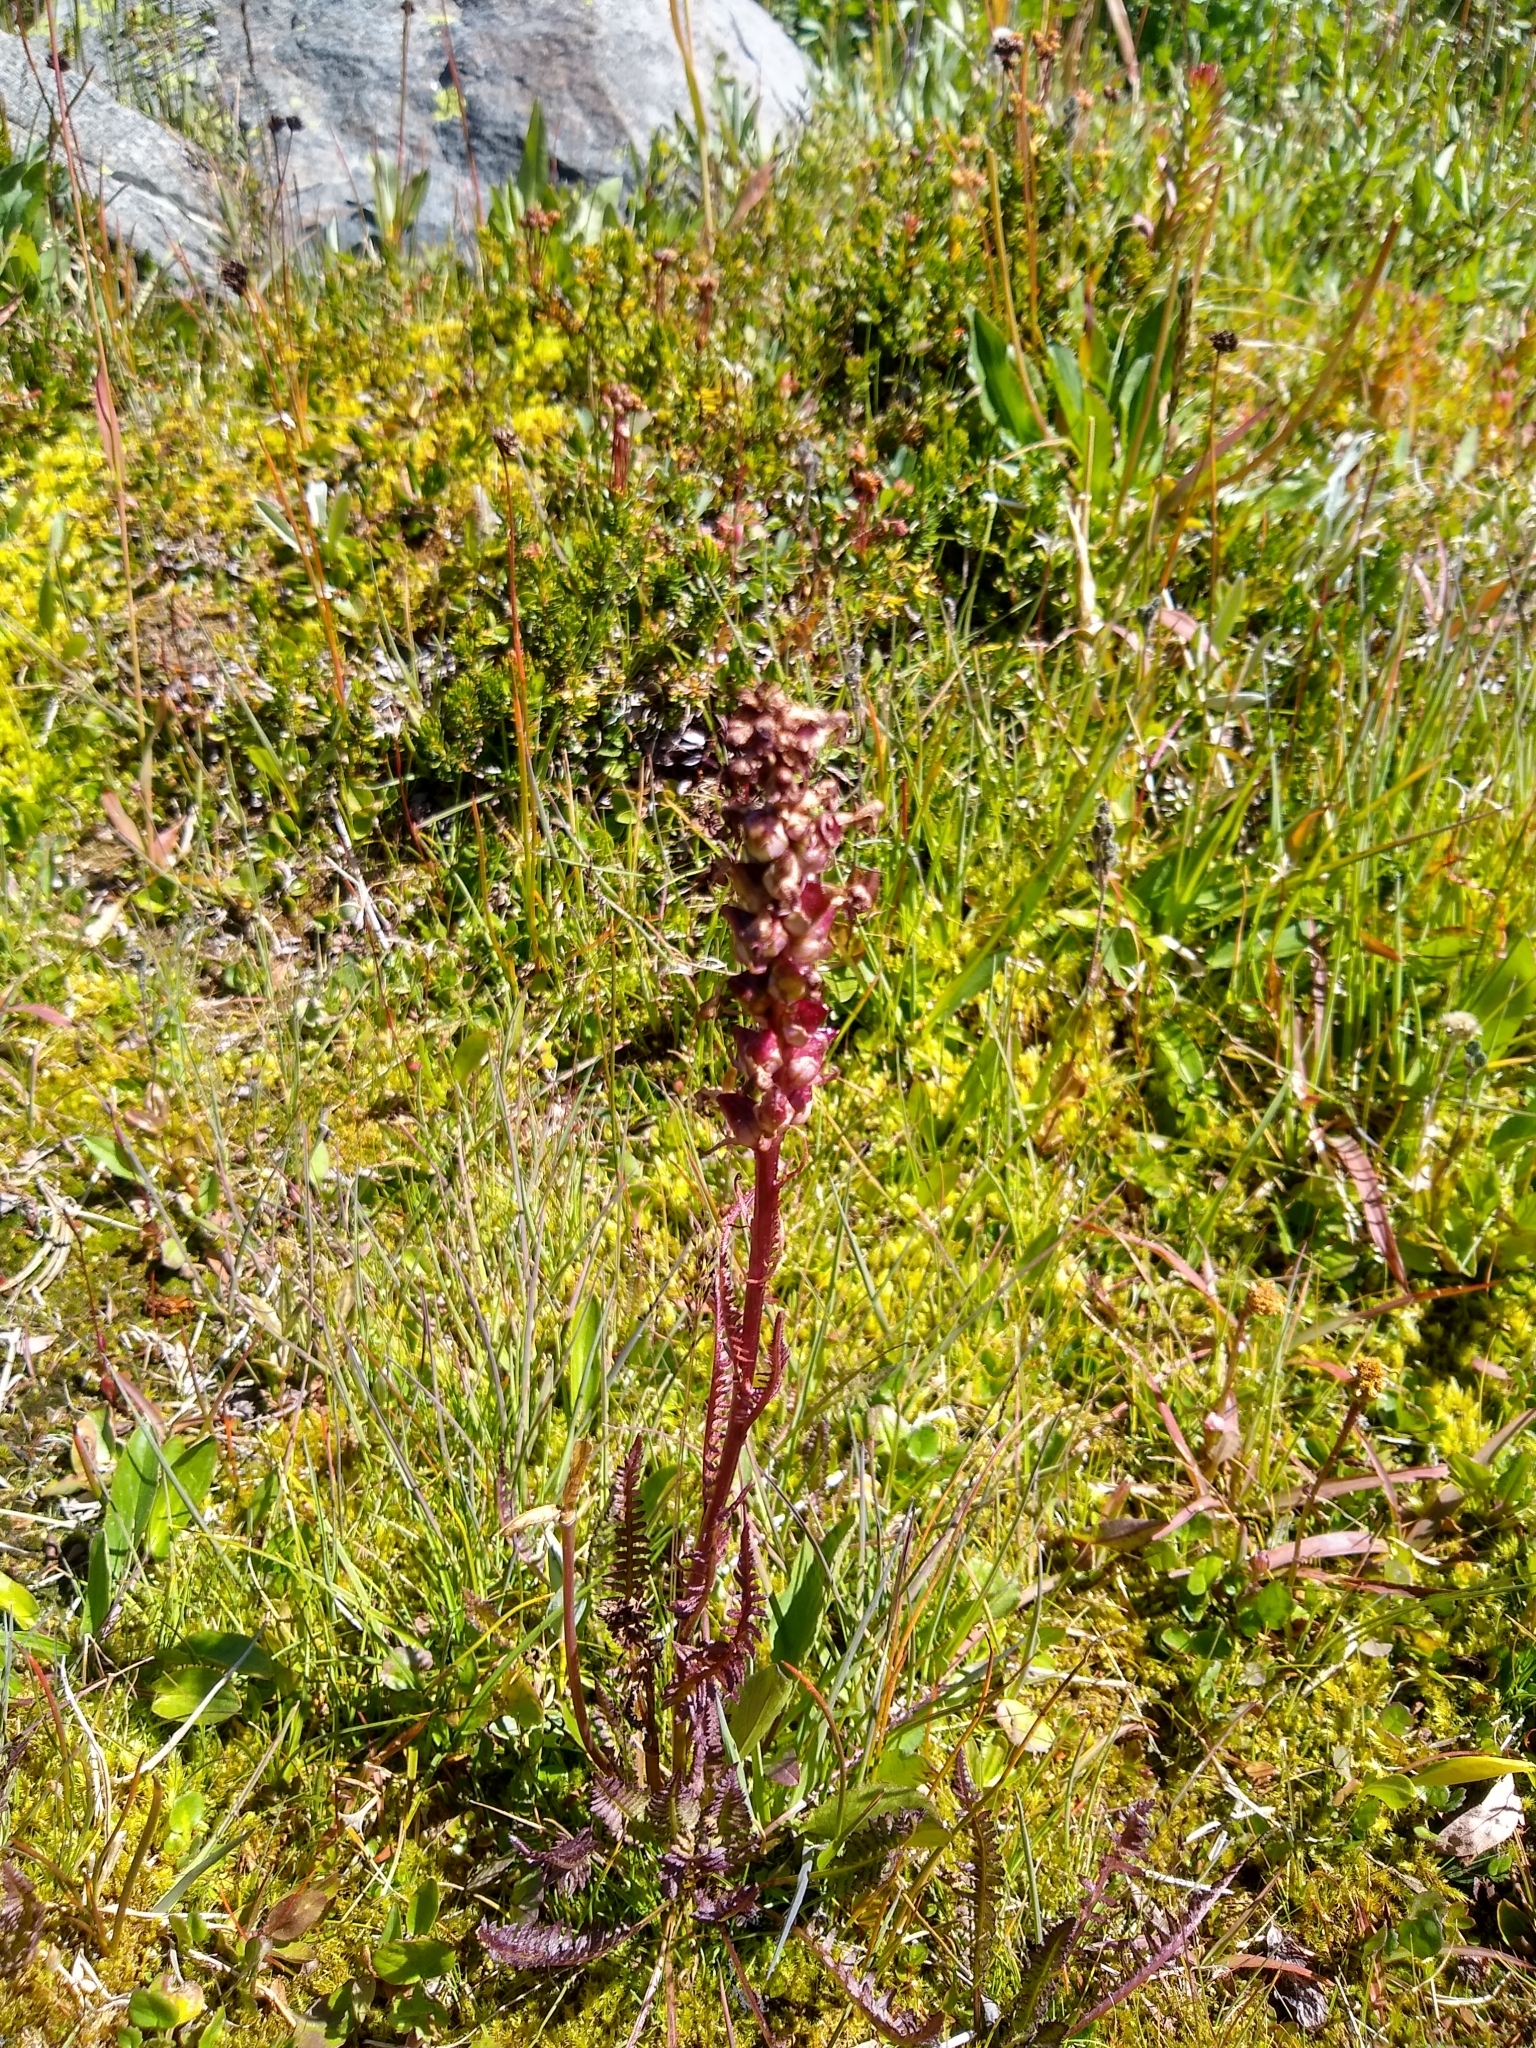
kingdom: Plantae
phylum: Tracheophyta
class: Magnoliopsida
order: Lamiales
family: Orobanchaceae
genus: Pedicularis
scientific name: Pedicularis groenlandica
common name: Elephant's-head
